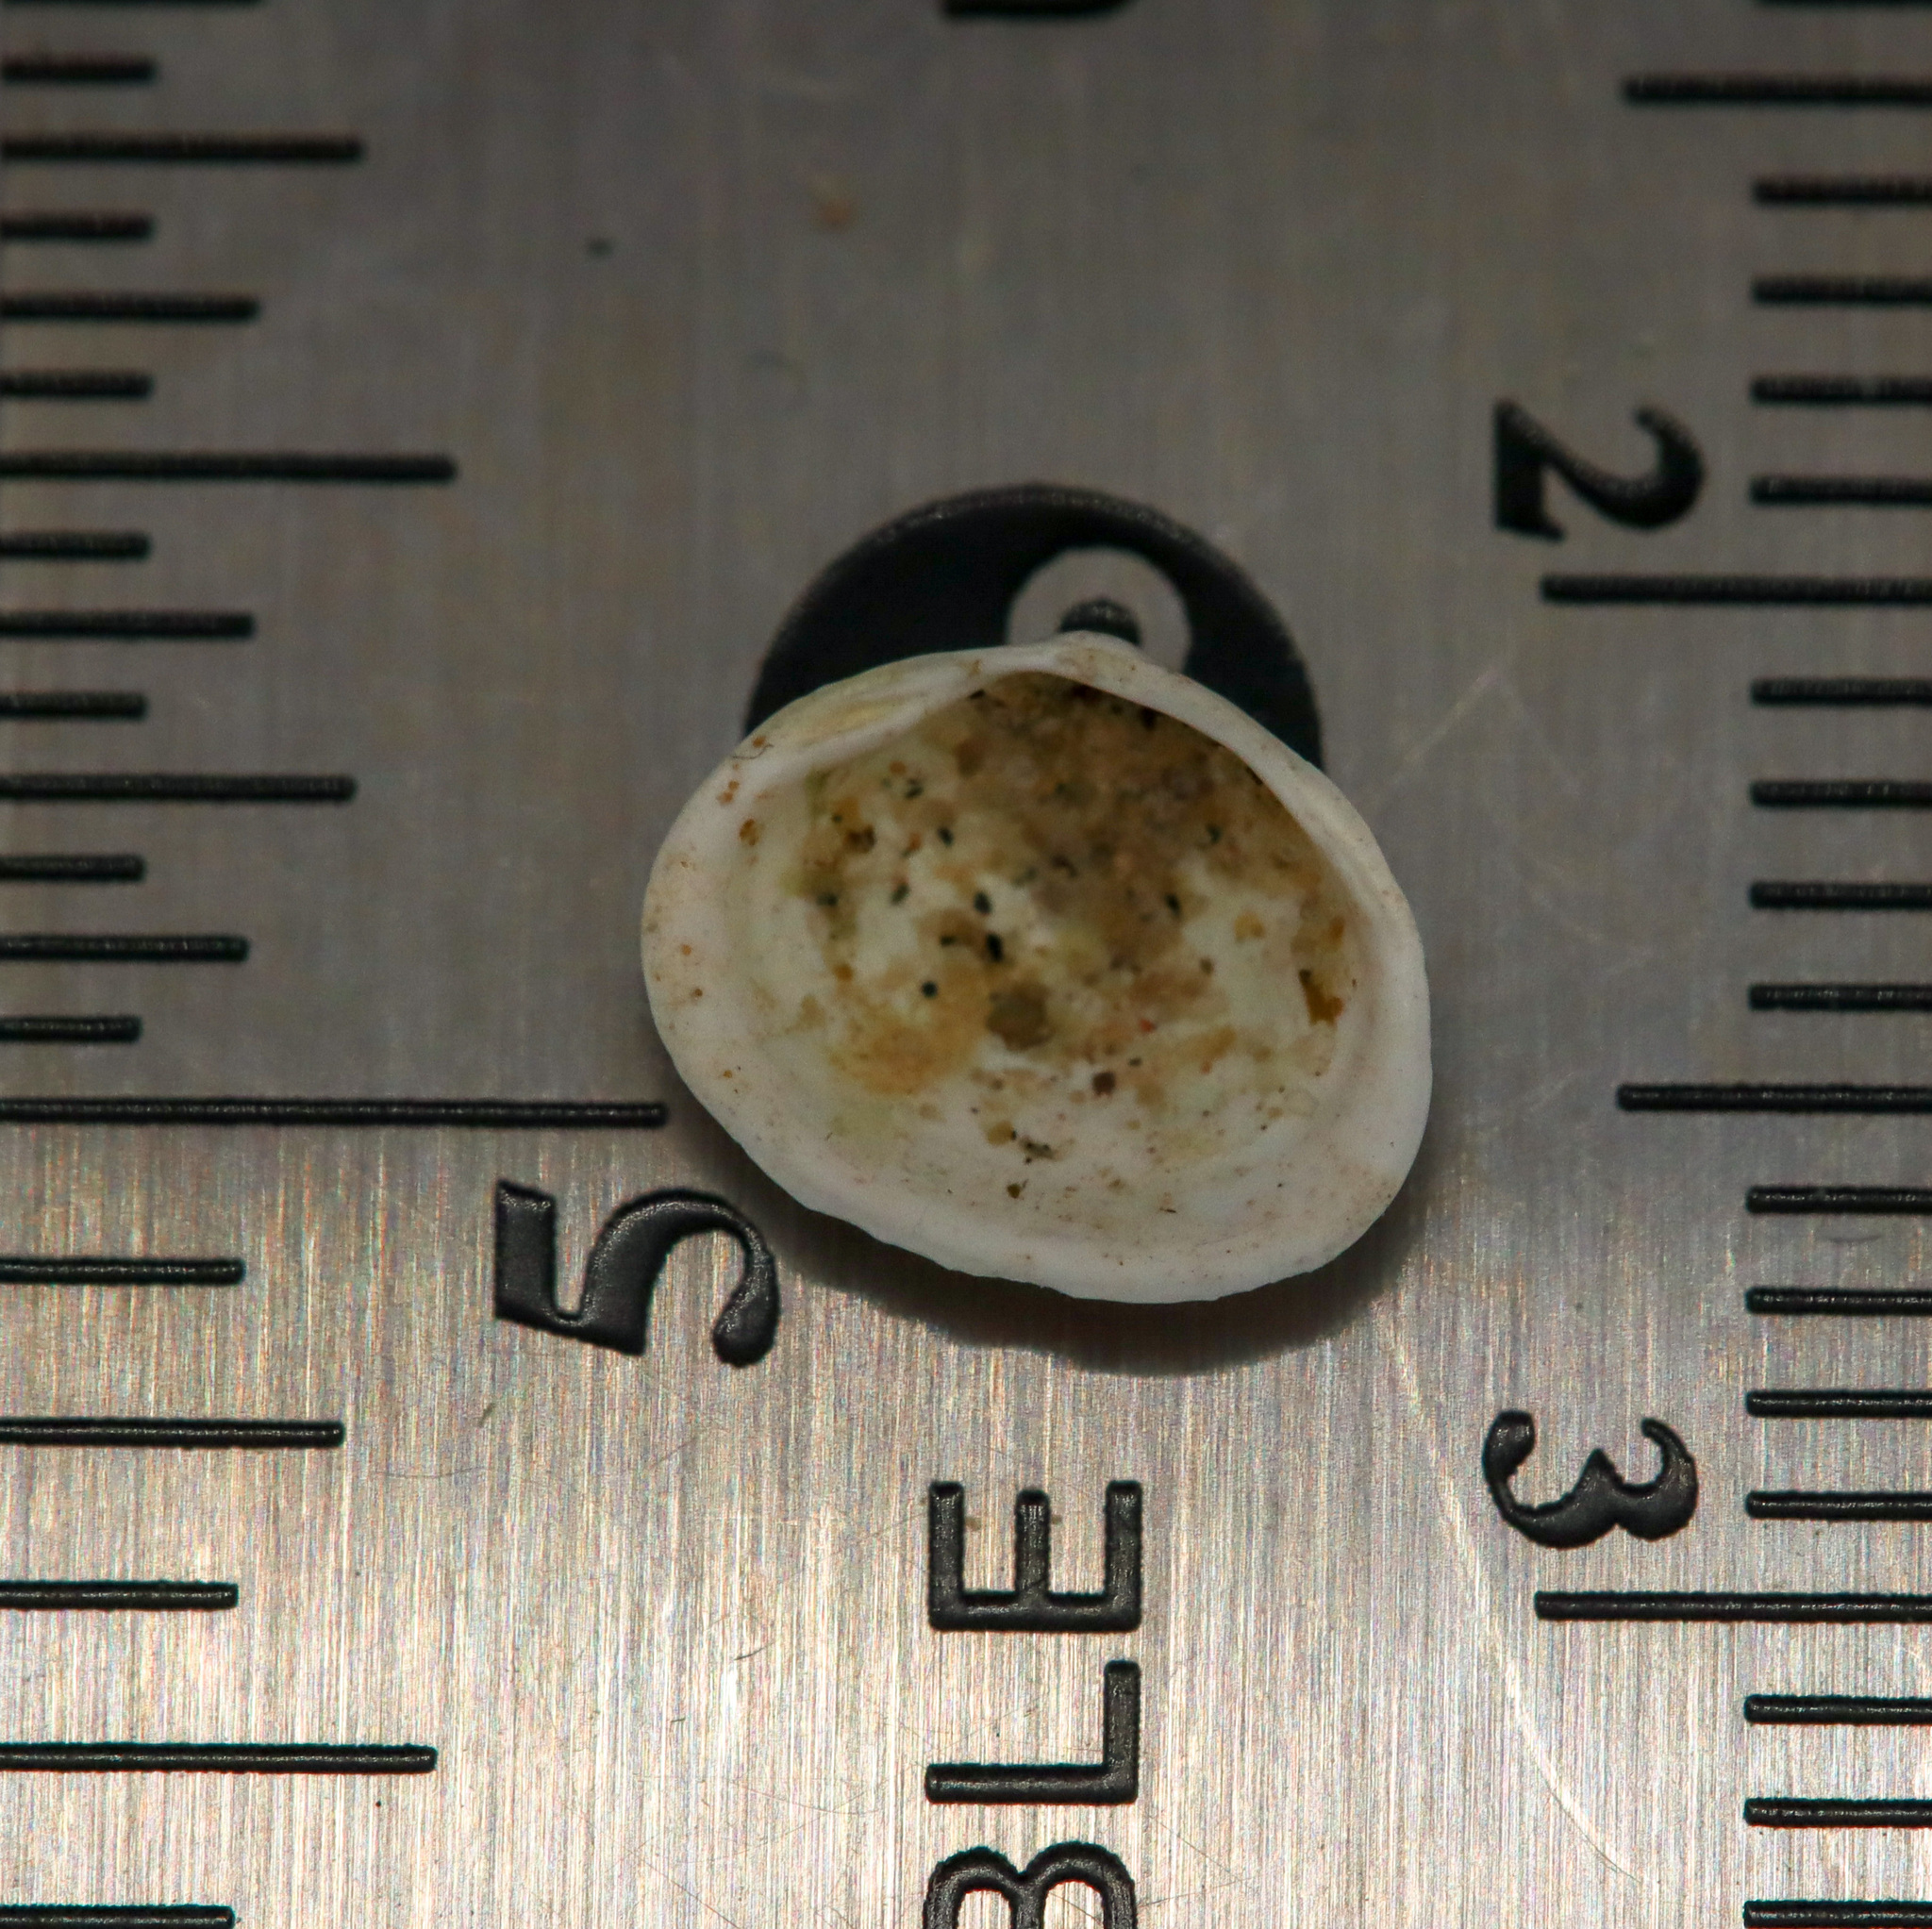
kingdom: Animalia
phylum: Mollusca
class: Bivalvia
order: Sphaeriida
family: Sphaeriidae
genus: Sphaerium
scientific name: Sphaerium striatinum
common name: Striated fingernailclam
